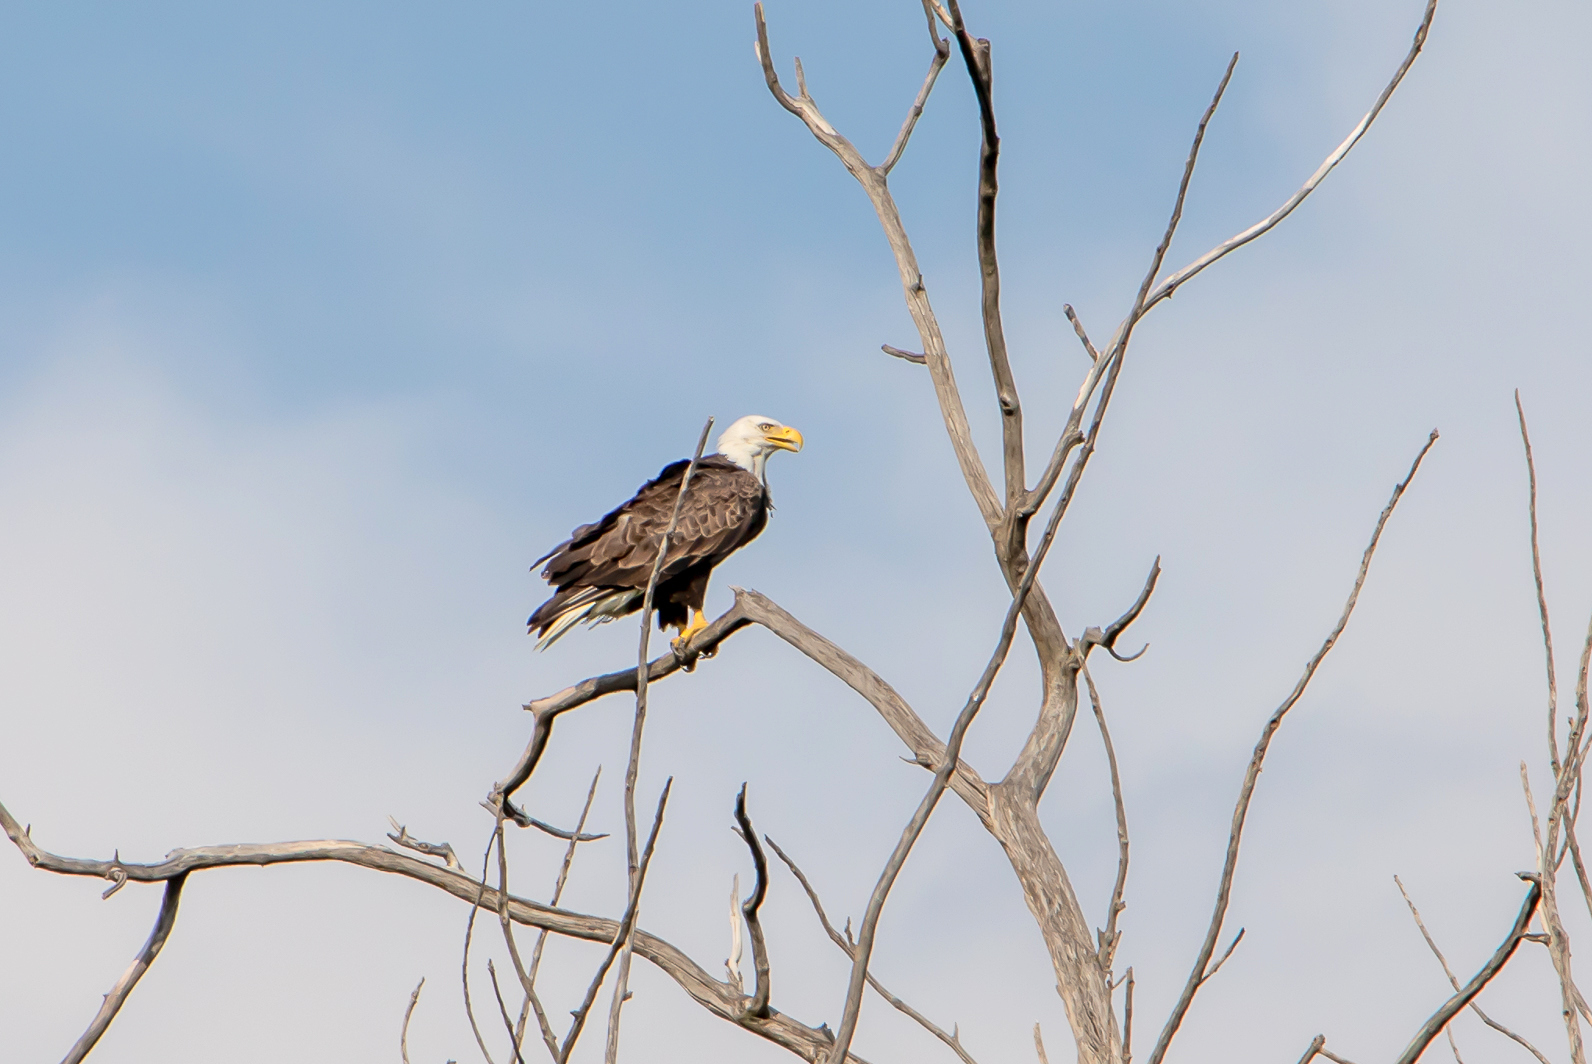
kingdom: Animalia
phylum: Chordata
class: Aves
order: Accipitriformes
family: Accipitridae
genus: Haliaeetus
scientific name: Haliaeetus leucocephalus
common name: Bald eagle
